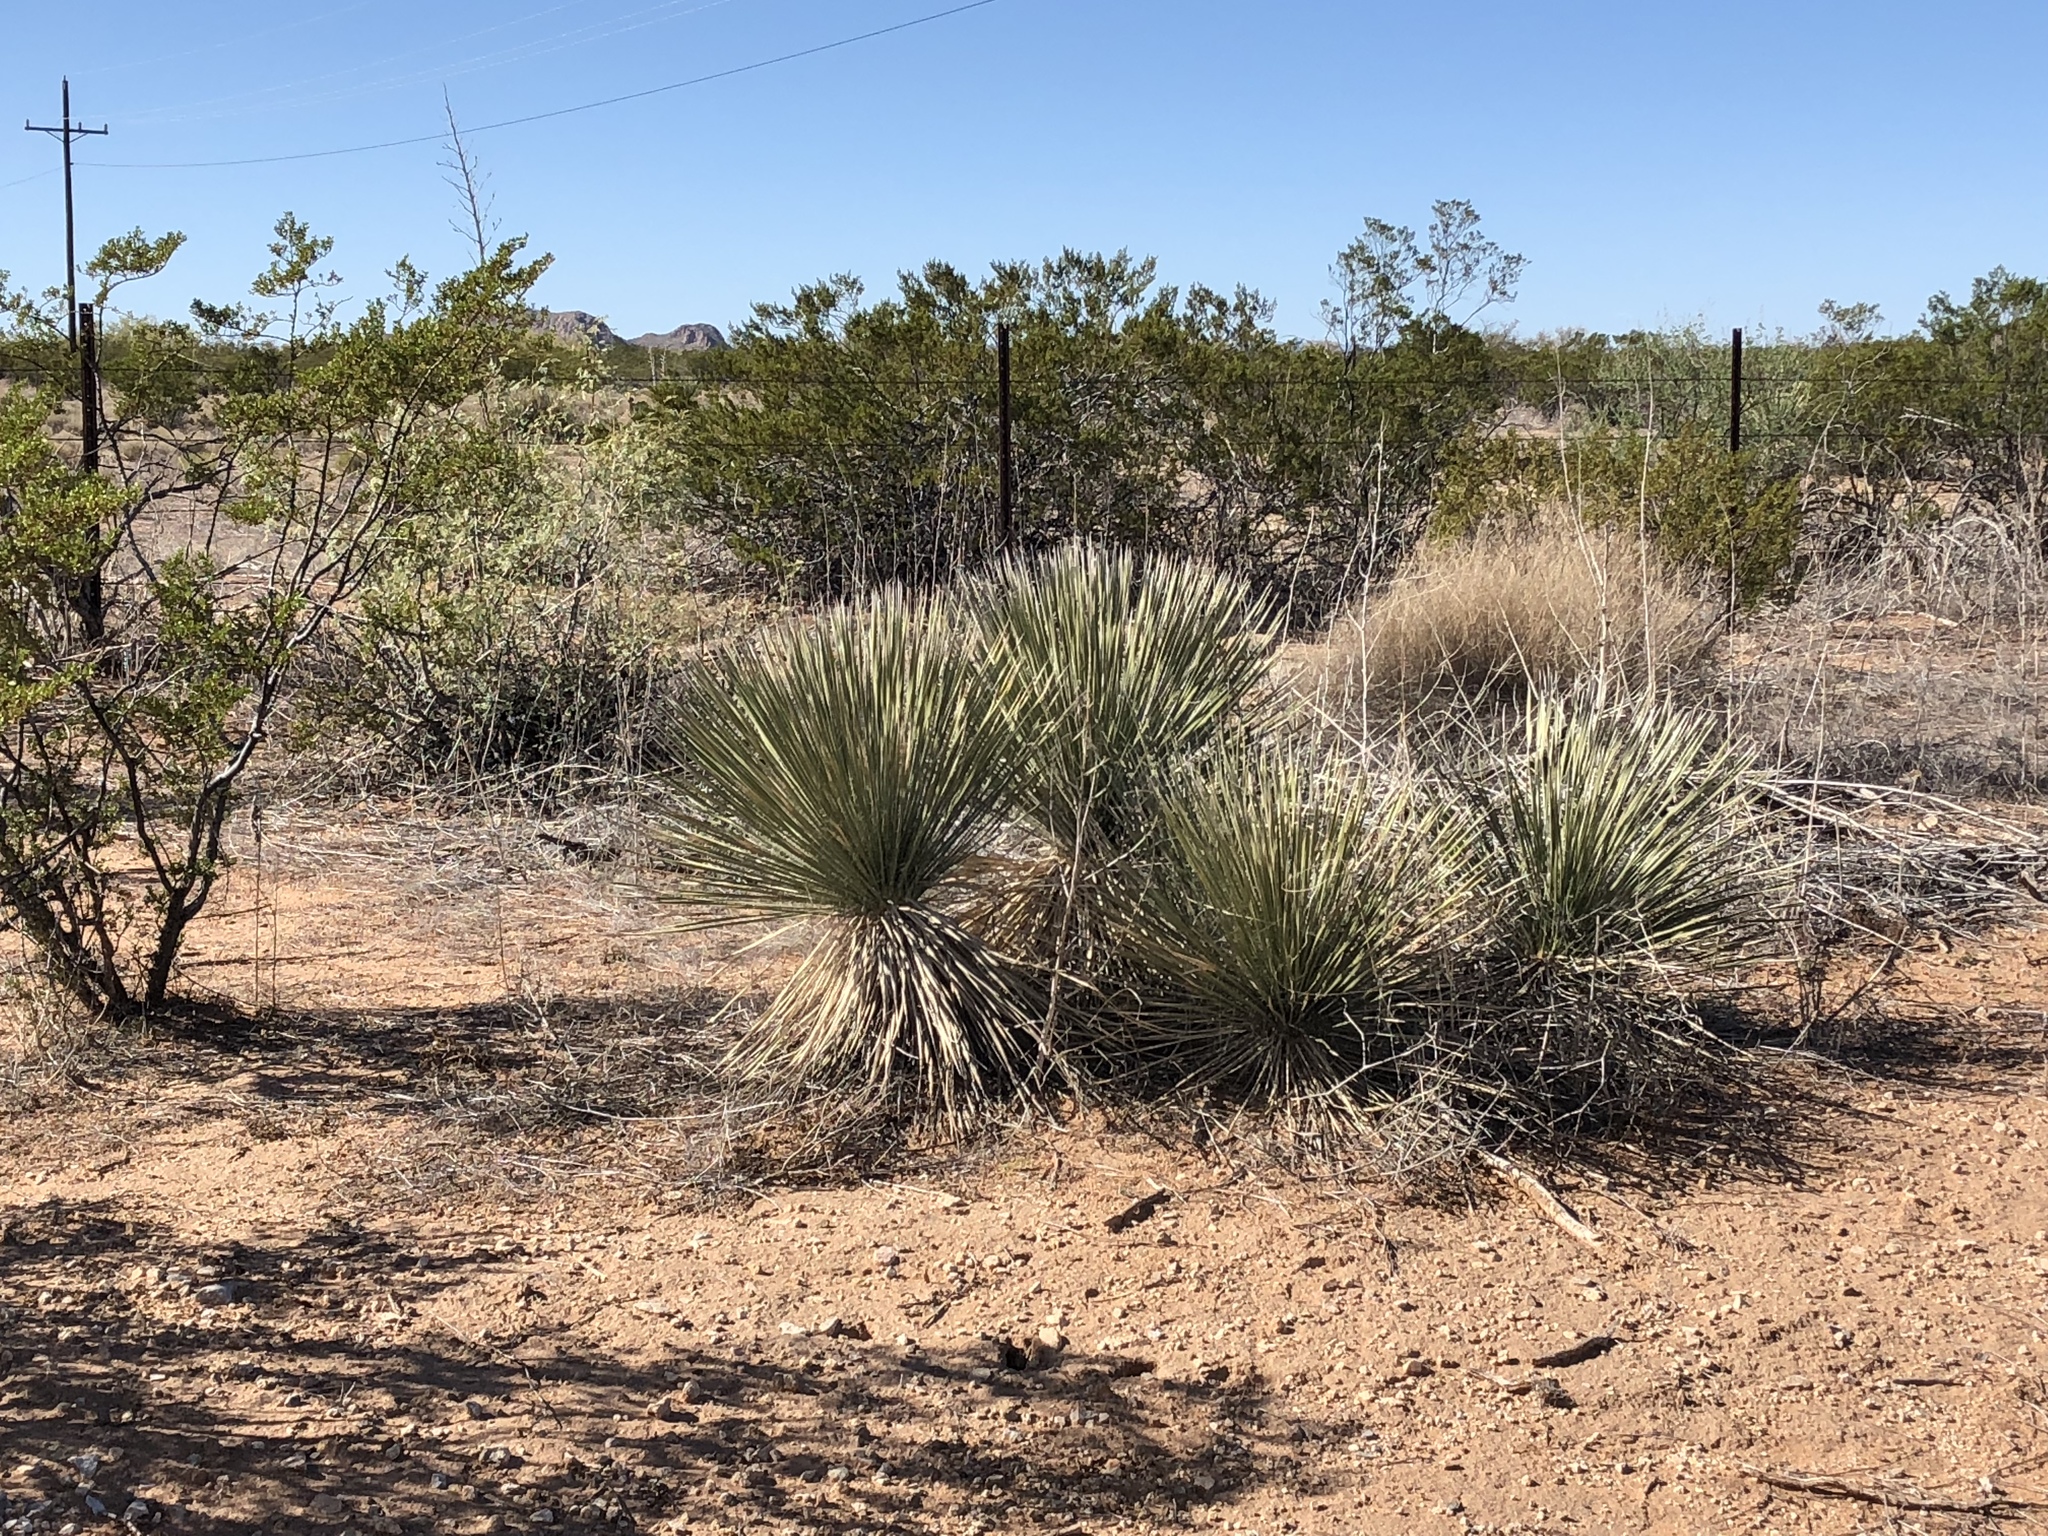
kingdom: Plantae
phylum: Tracheophyta
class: Liliopsida
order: Asparagales
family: Asparagaceae
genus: Yucca
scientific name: Yucca elata
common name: Palmella
